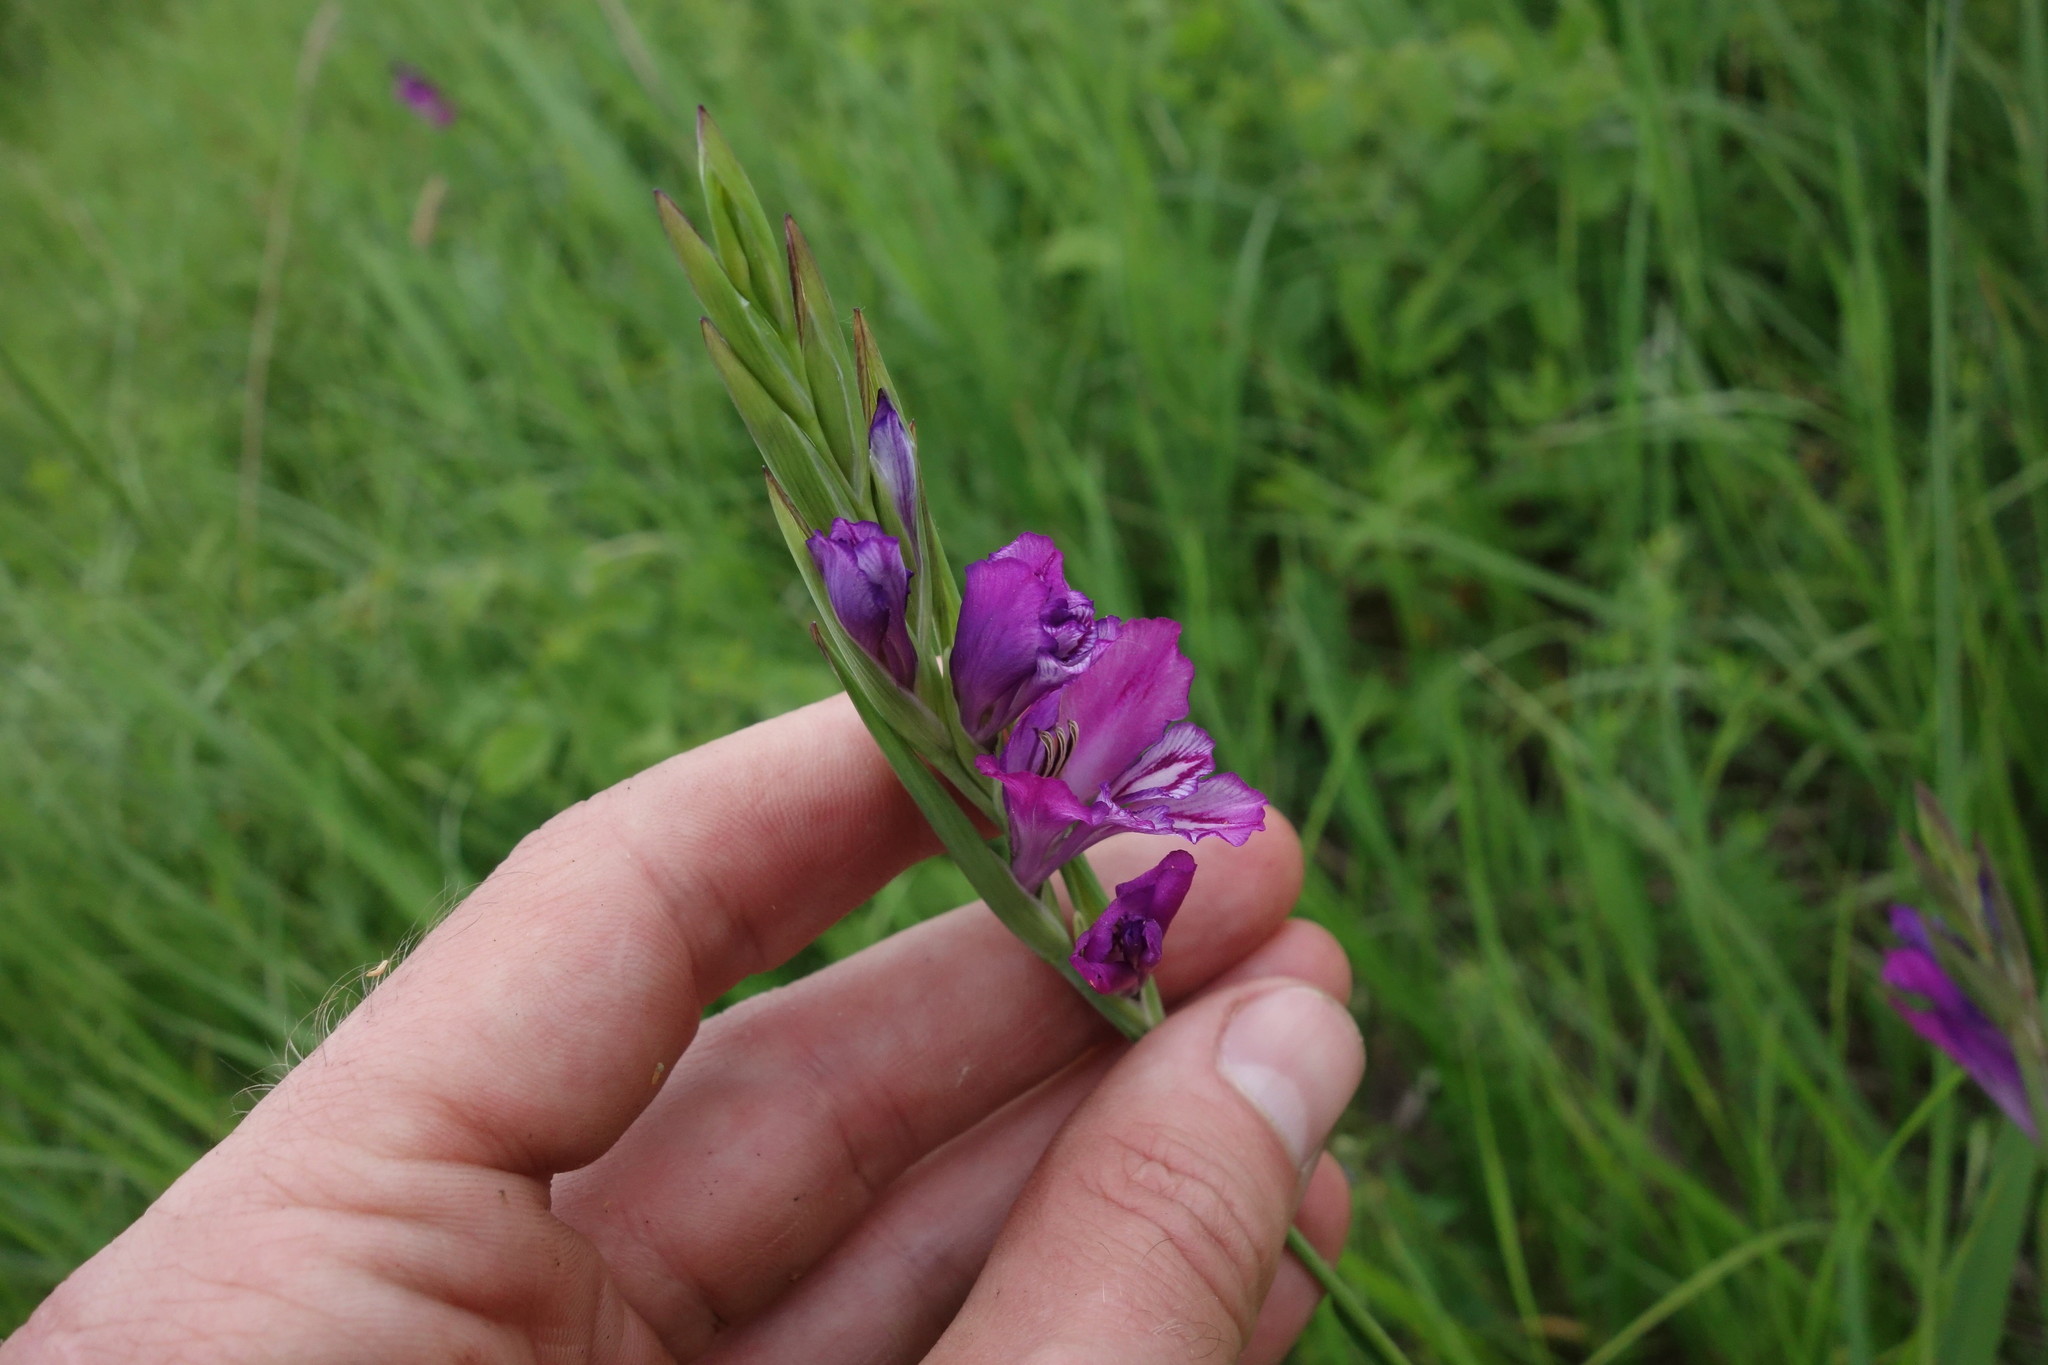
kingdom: Plantae
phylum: Tracheophyta
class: Liliopsida
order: Asparagales
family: Iridaceae
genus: Gladiolus
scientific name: Gladiolus tenuis
